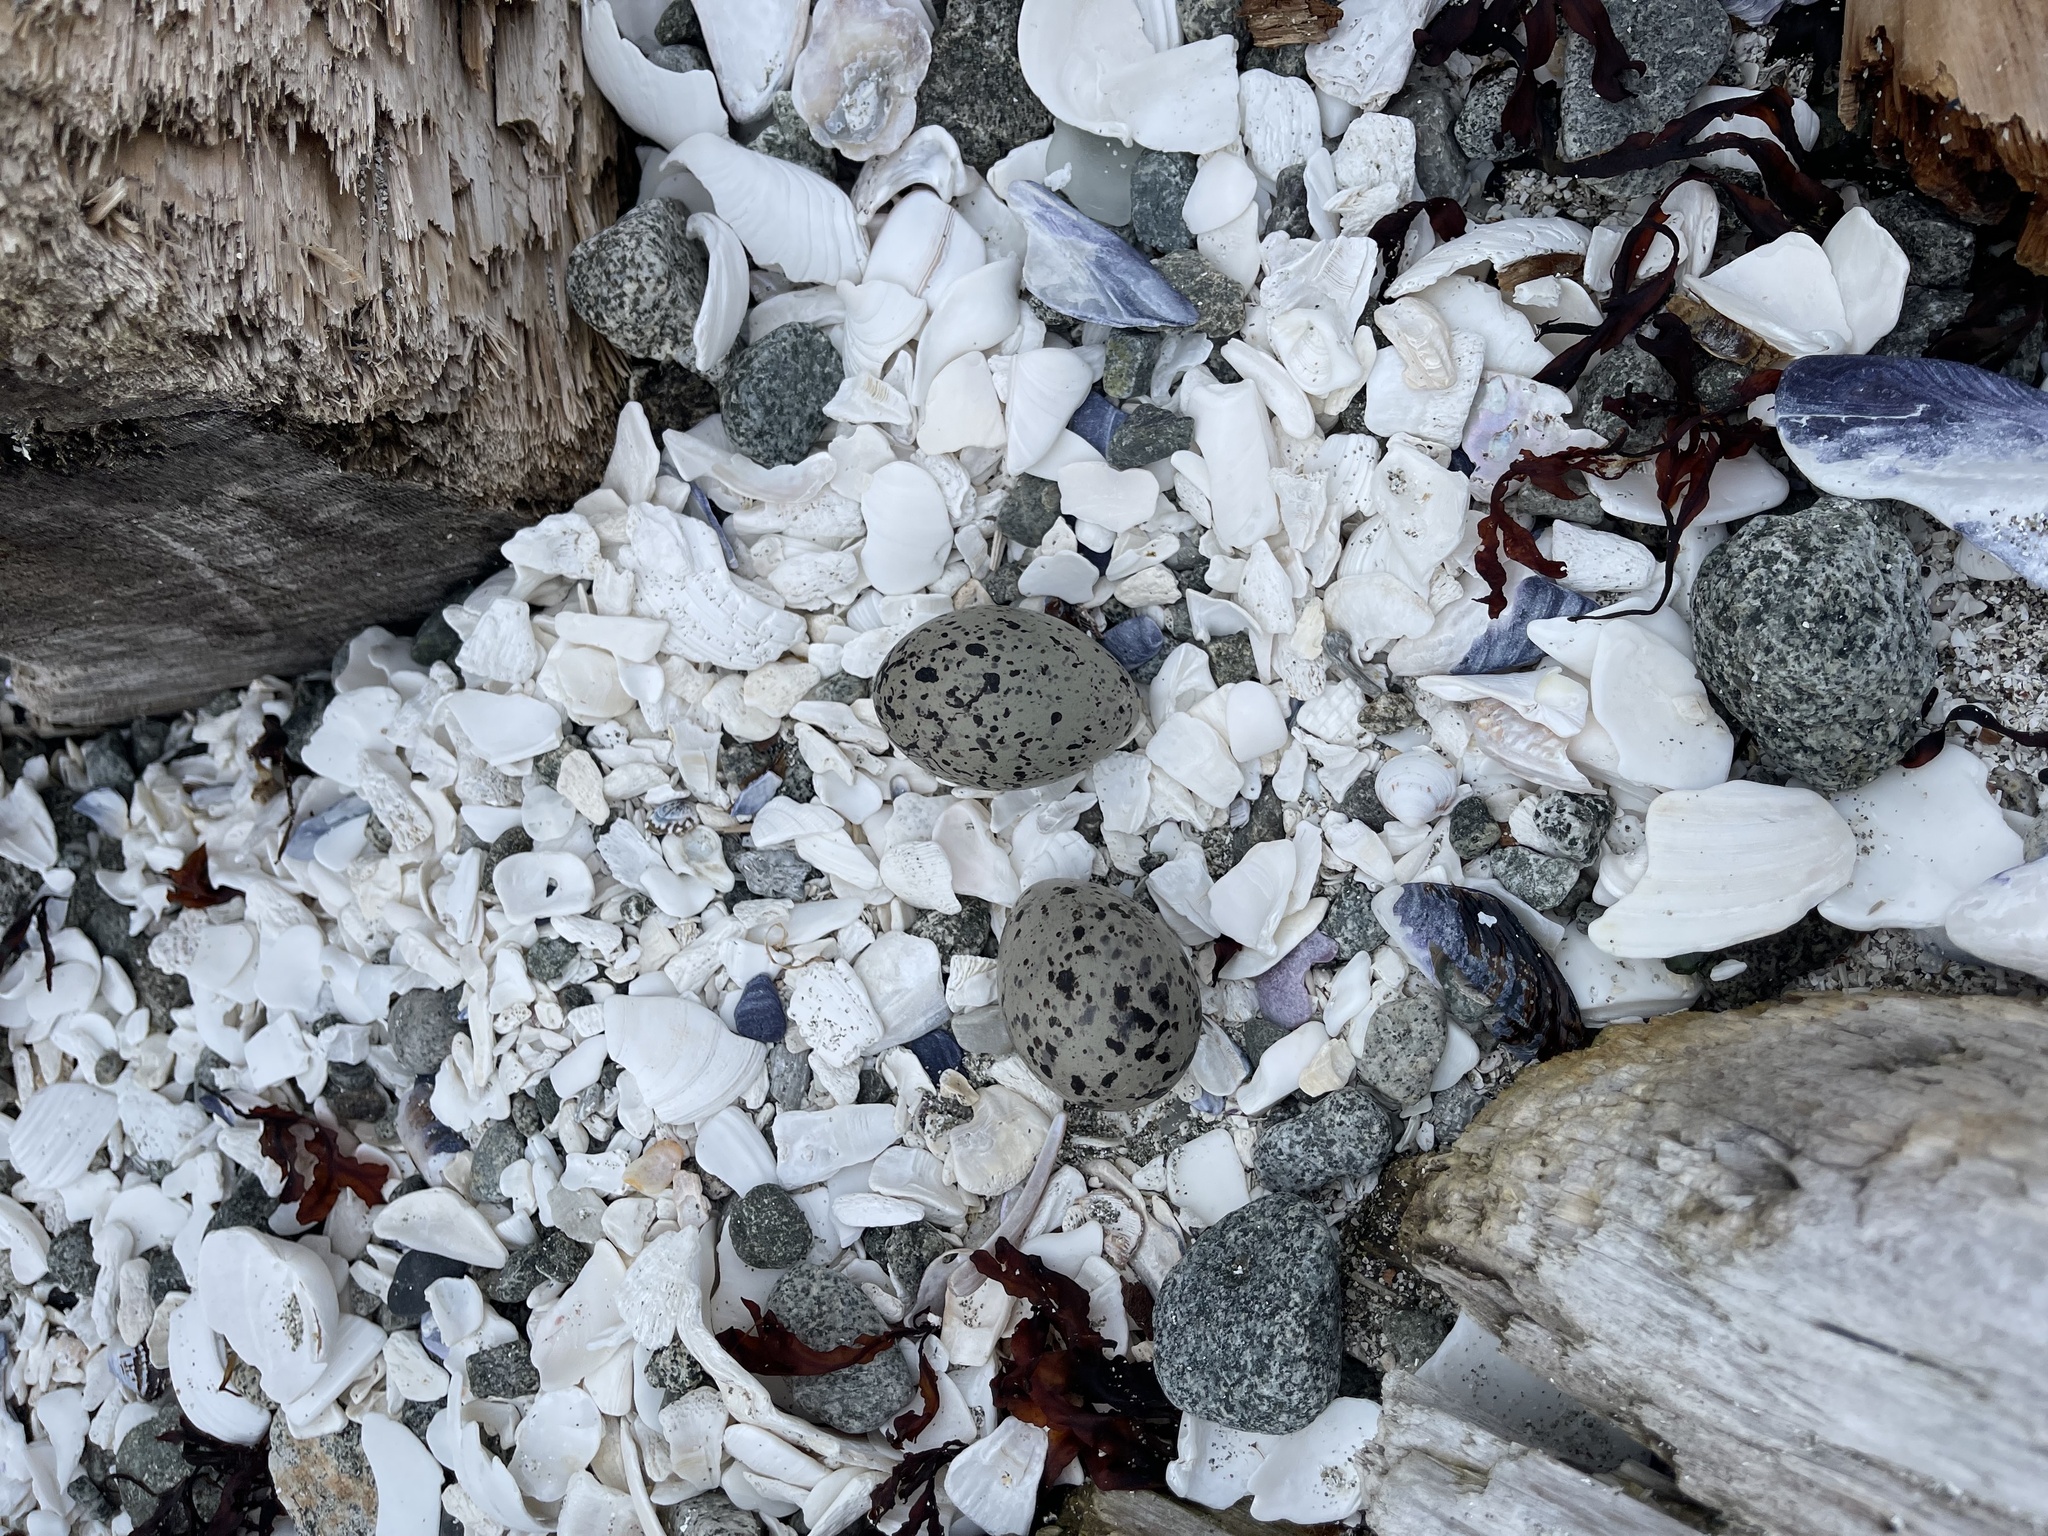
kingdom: Animalia
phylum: Chordata
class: Aves
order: Charadriiformes
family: Haematopodidae
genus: Haematopus
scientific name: Haematopus bachmani
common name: Black oystercatcher
